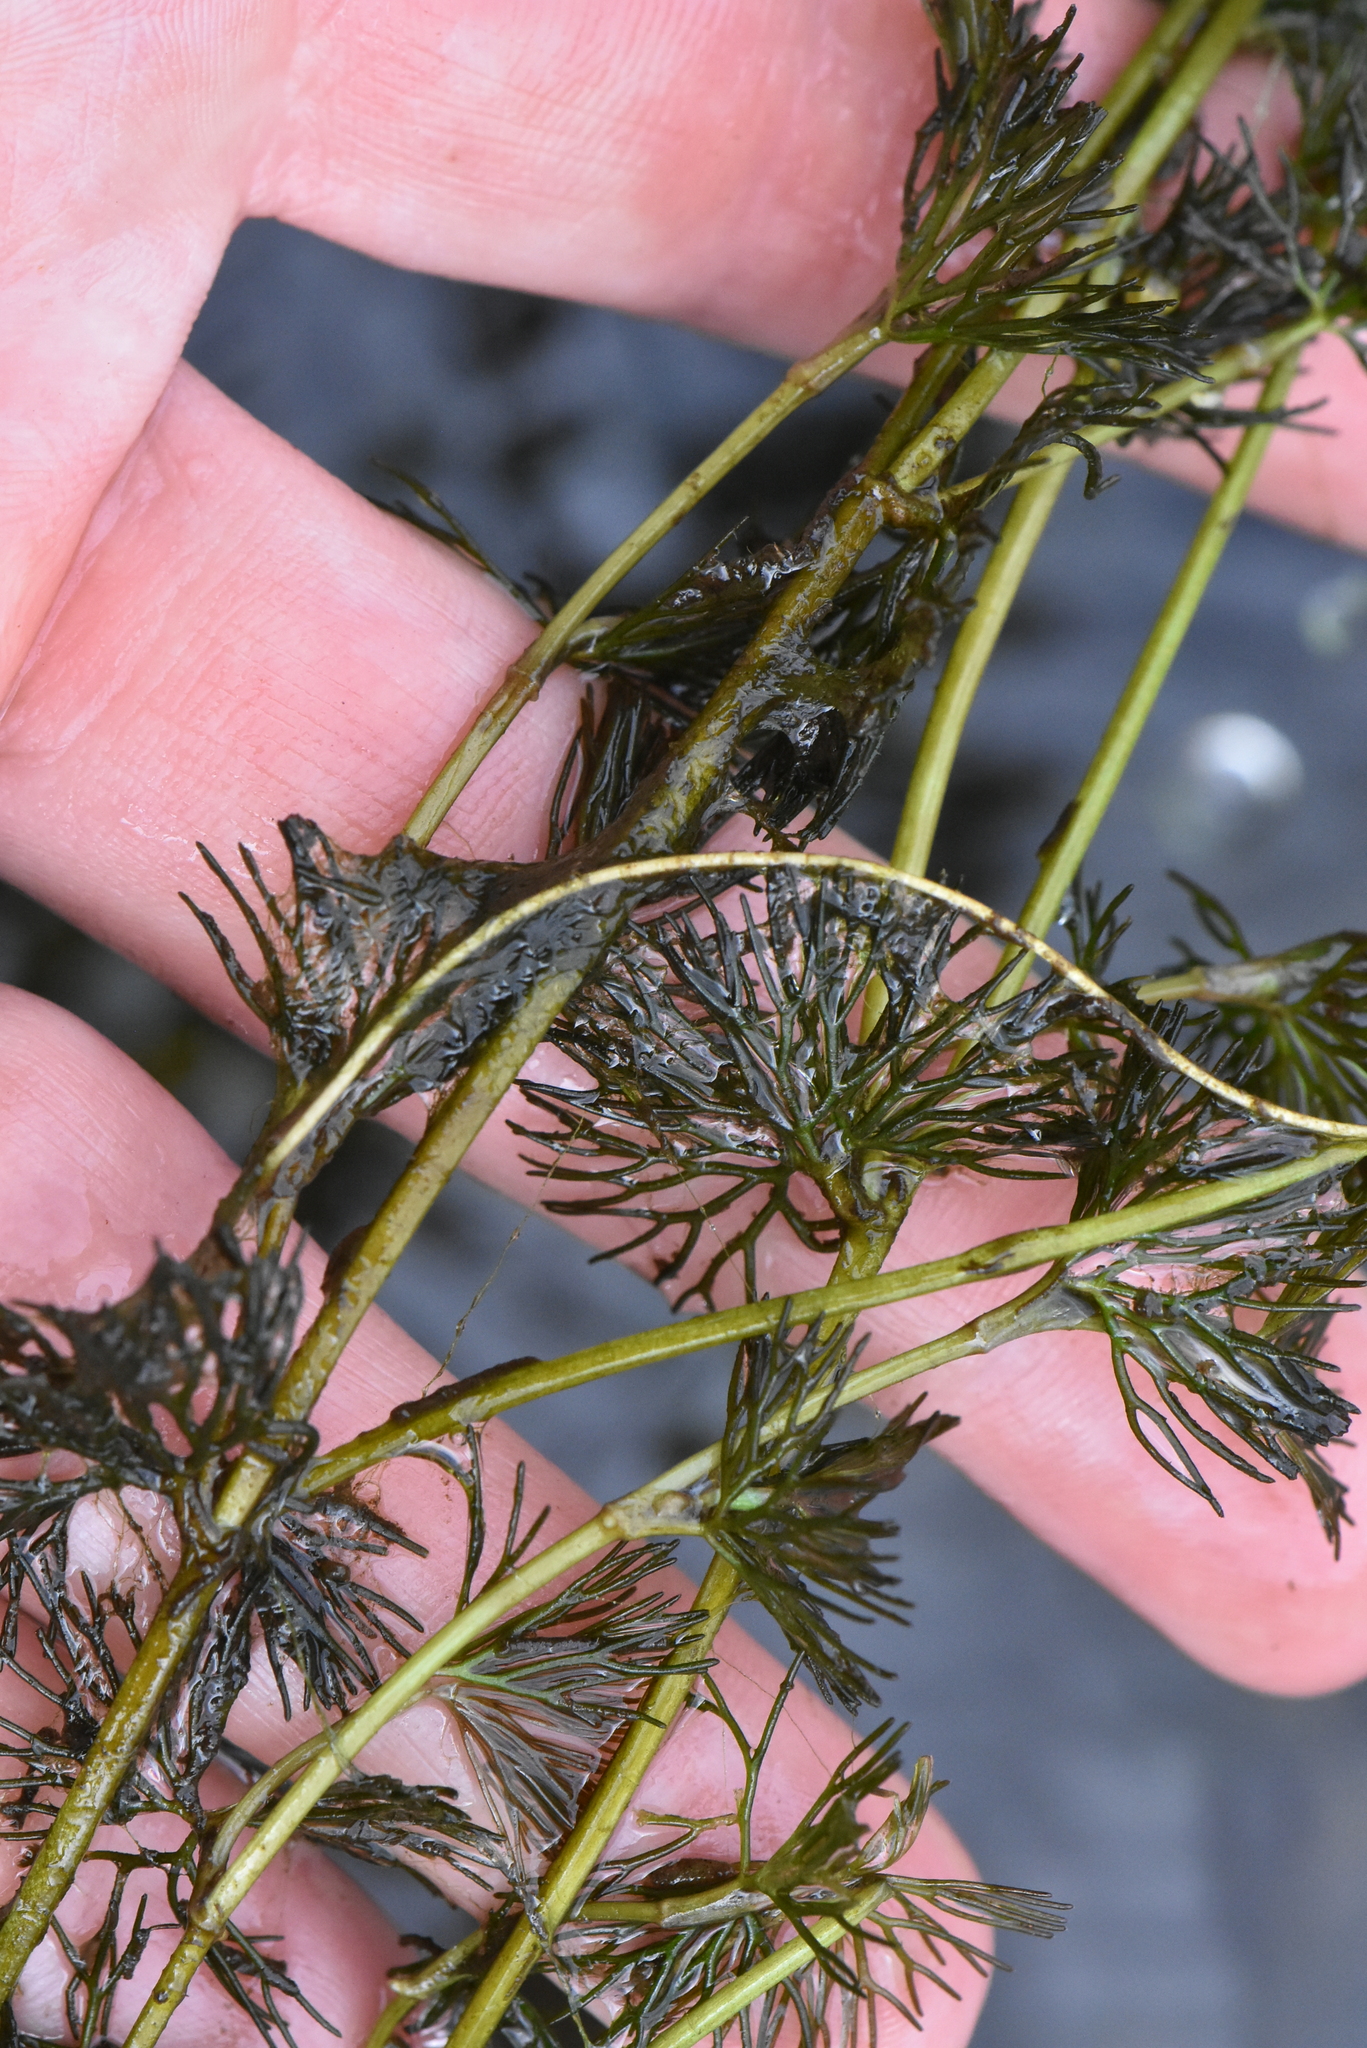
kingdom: Plantae
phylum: Tracheophyta
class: Magnoliopsida
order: Ranunculales
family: Ranunculaceae
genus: Ranunculus
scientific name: Ranunculus circinatus
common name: Fan-leaved water-crowfoot
